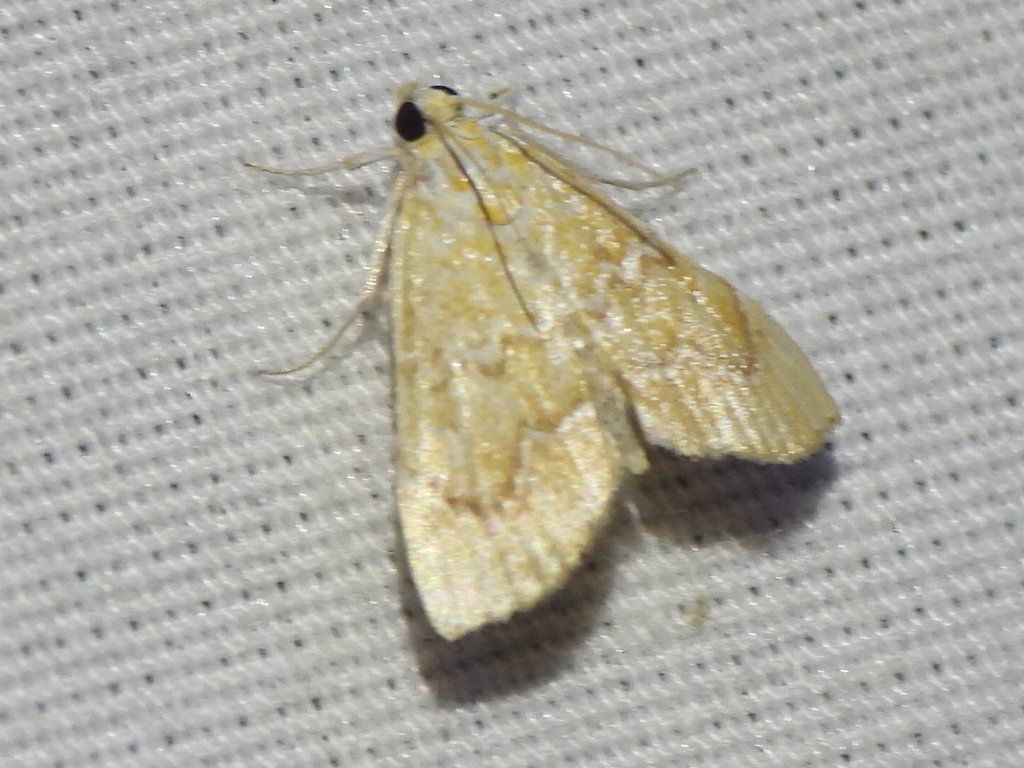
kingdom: Animalia
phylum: Arthropoda
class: Insecta
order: Lepidoptera
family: Crambidae
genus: Glaphyria
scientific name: Glaphyria sesquistrialis
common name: White-roped glaphyria
